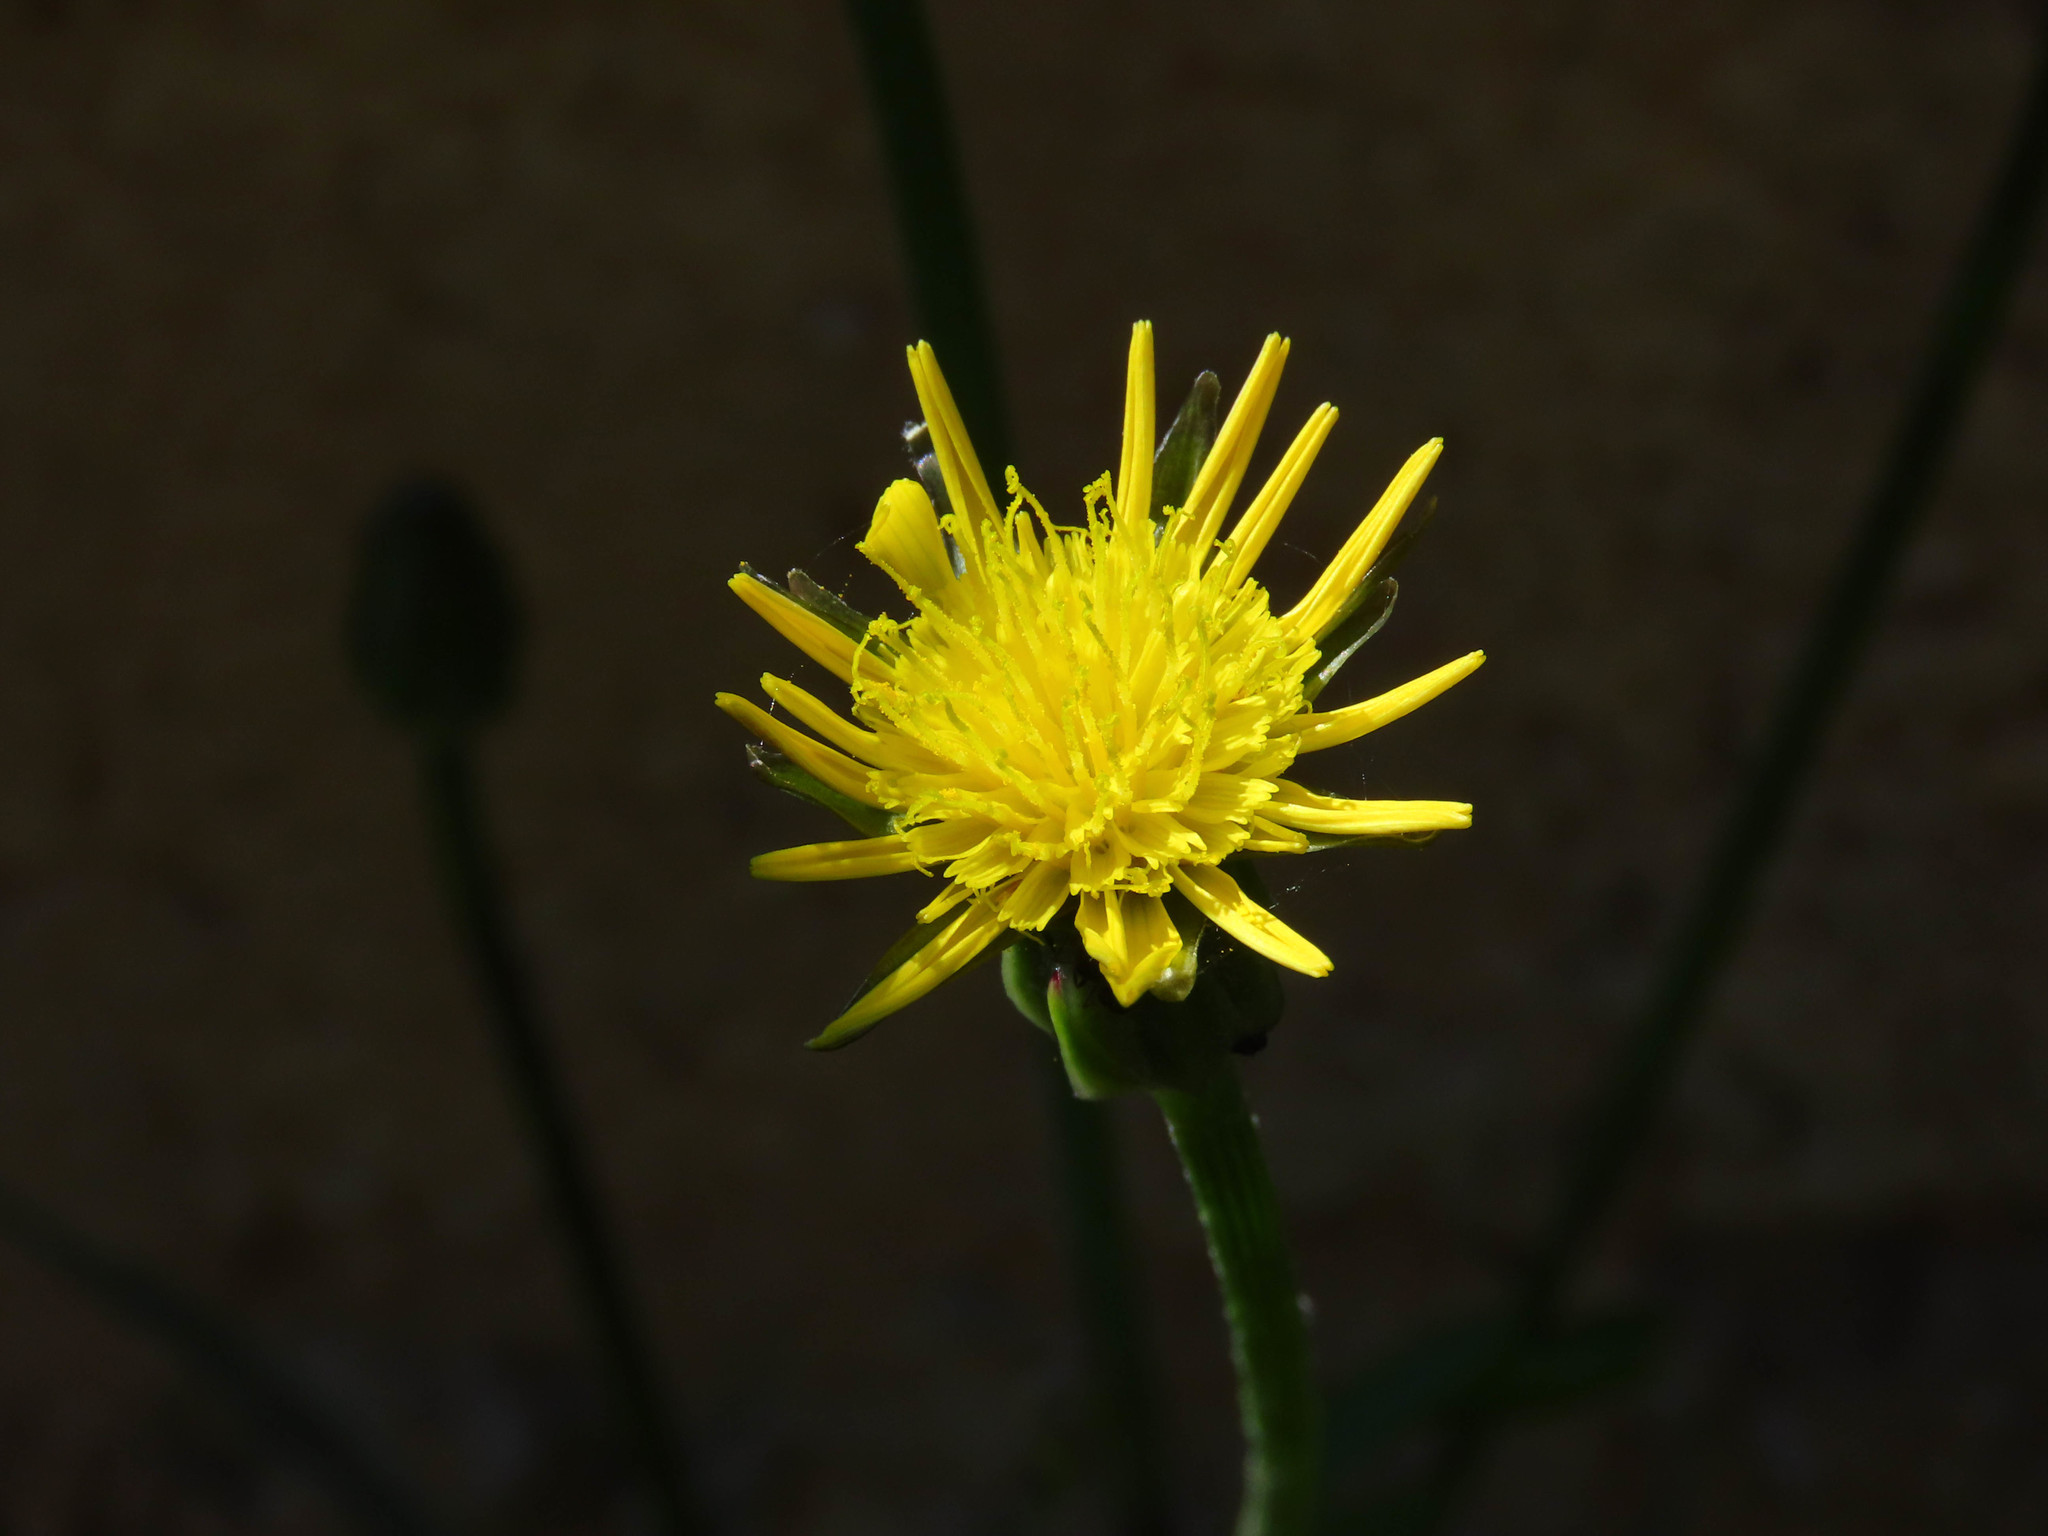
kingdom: Plantae
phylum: Tracheophyta
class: Magnoliopsida
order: Asterales
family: Asteraceae
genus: Scorzonera
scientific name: Scorzonera laciniata
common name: Cutleaf vipergrass
